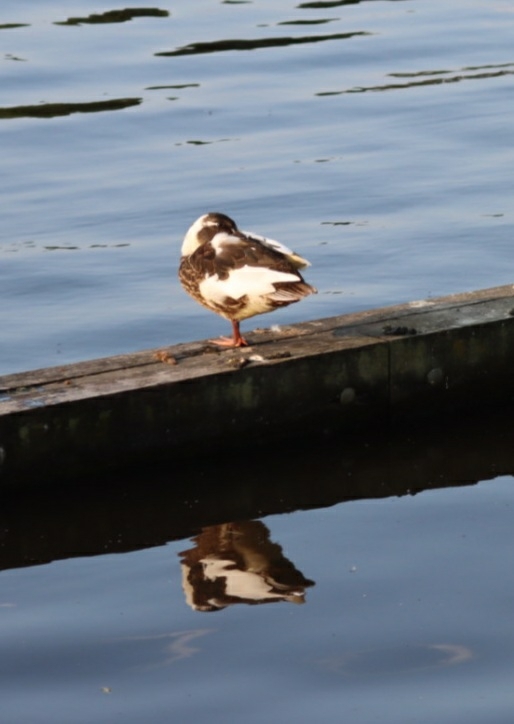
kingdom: Animalia
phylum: Chordata
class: Aves
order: Anseriformes
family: Anatidae
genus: Anas
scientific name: Anas platyrhynchos
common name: Mallard
